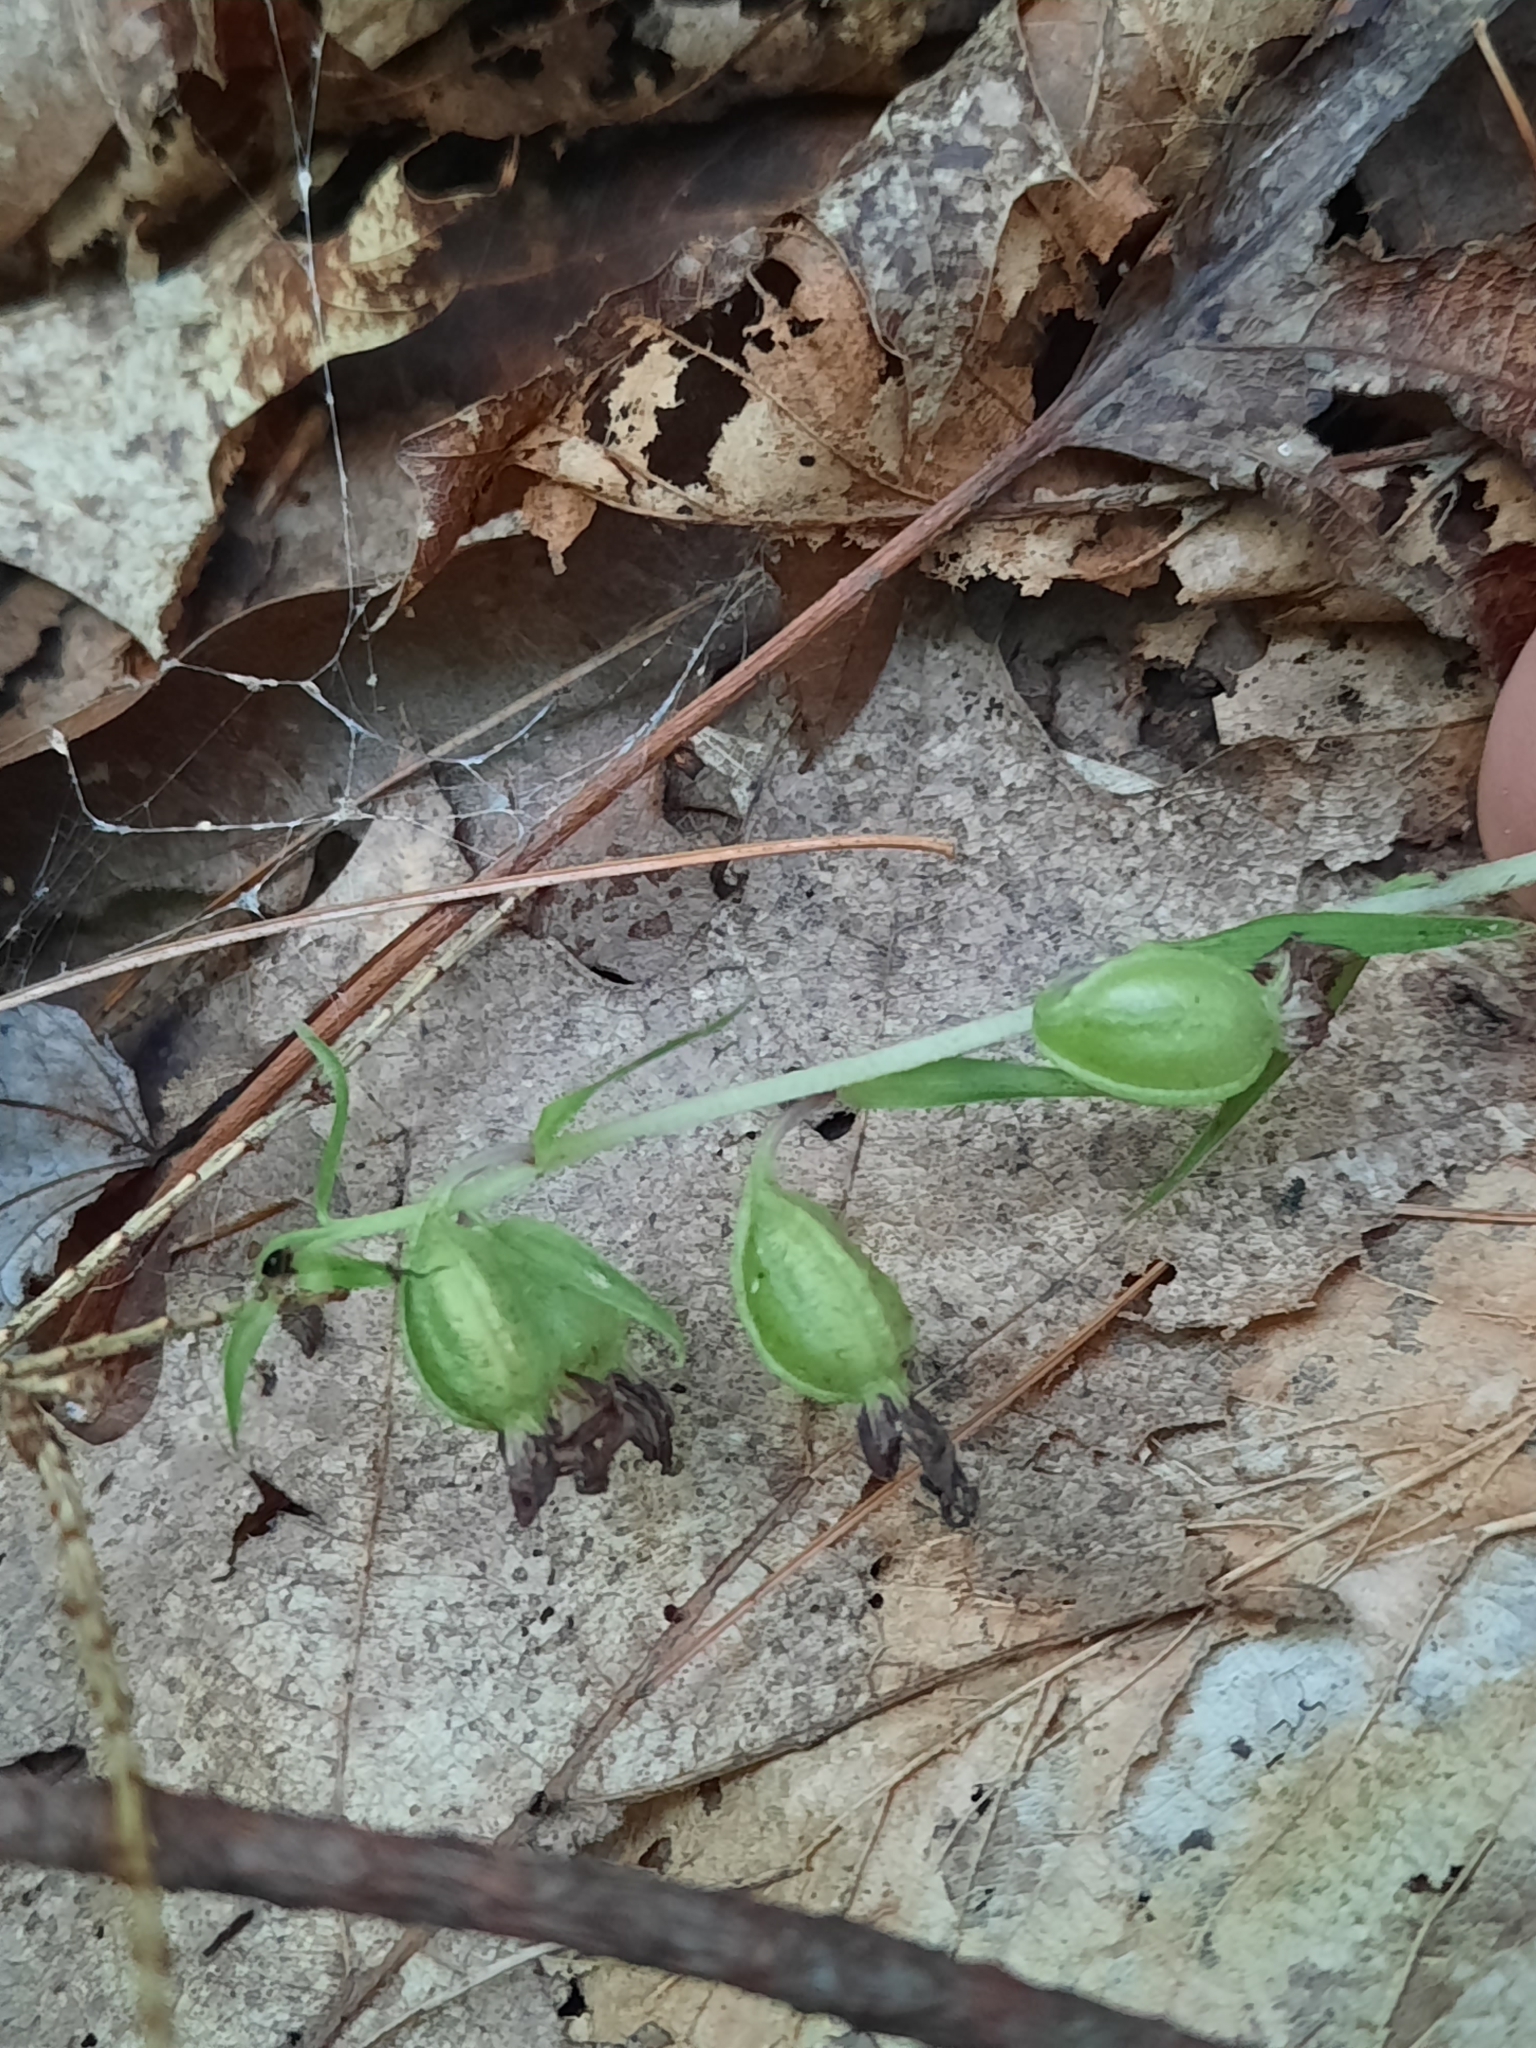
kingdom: Plantae
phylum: Tracheophyta
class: Liliopsida
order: Asparagales
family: Orchidaceae
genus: Epipactis
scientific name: Epipactis helleborine
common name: Broad-leaved helleborine
